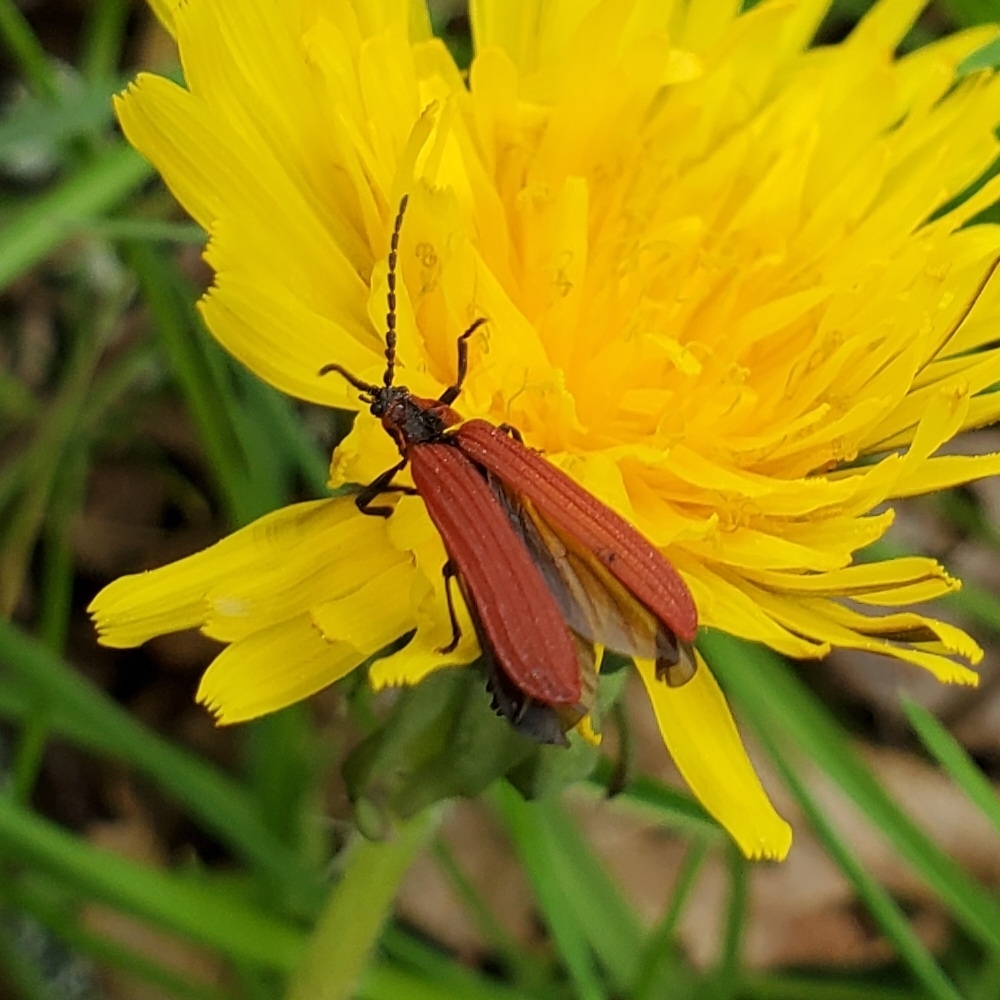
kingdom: Animalia
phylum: Arthropoda
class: Insecta
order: Coleoptera
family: Lycidae
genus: Dictyoptera
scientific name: Dictyoptera aurora
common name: Golden net-winged beetle
